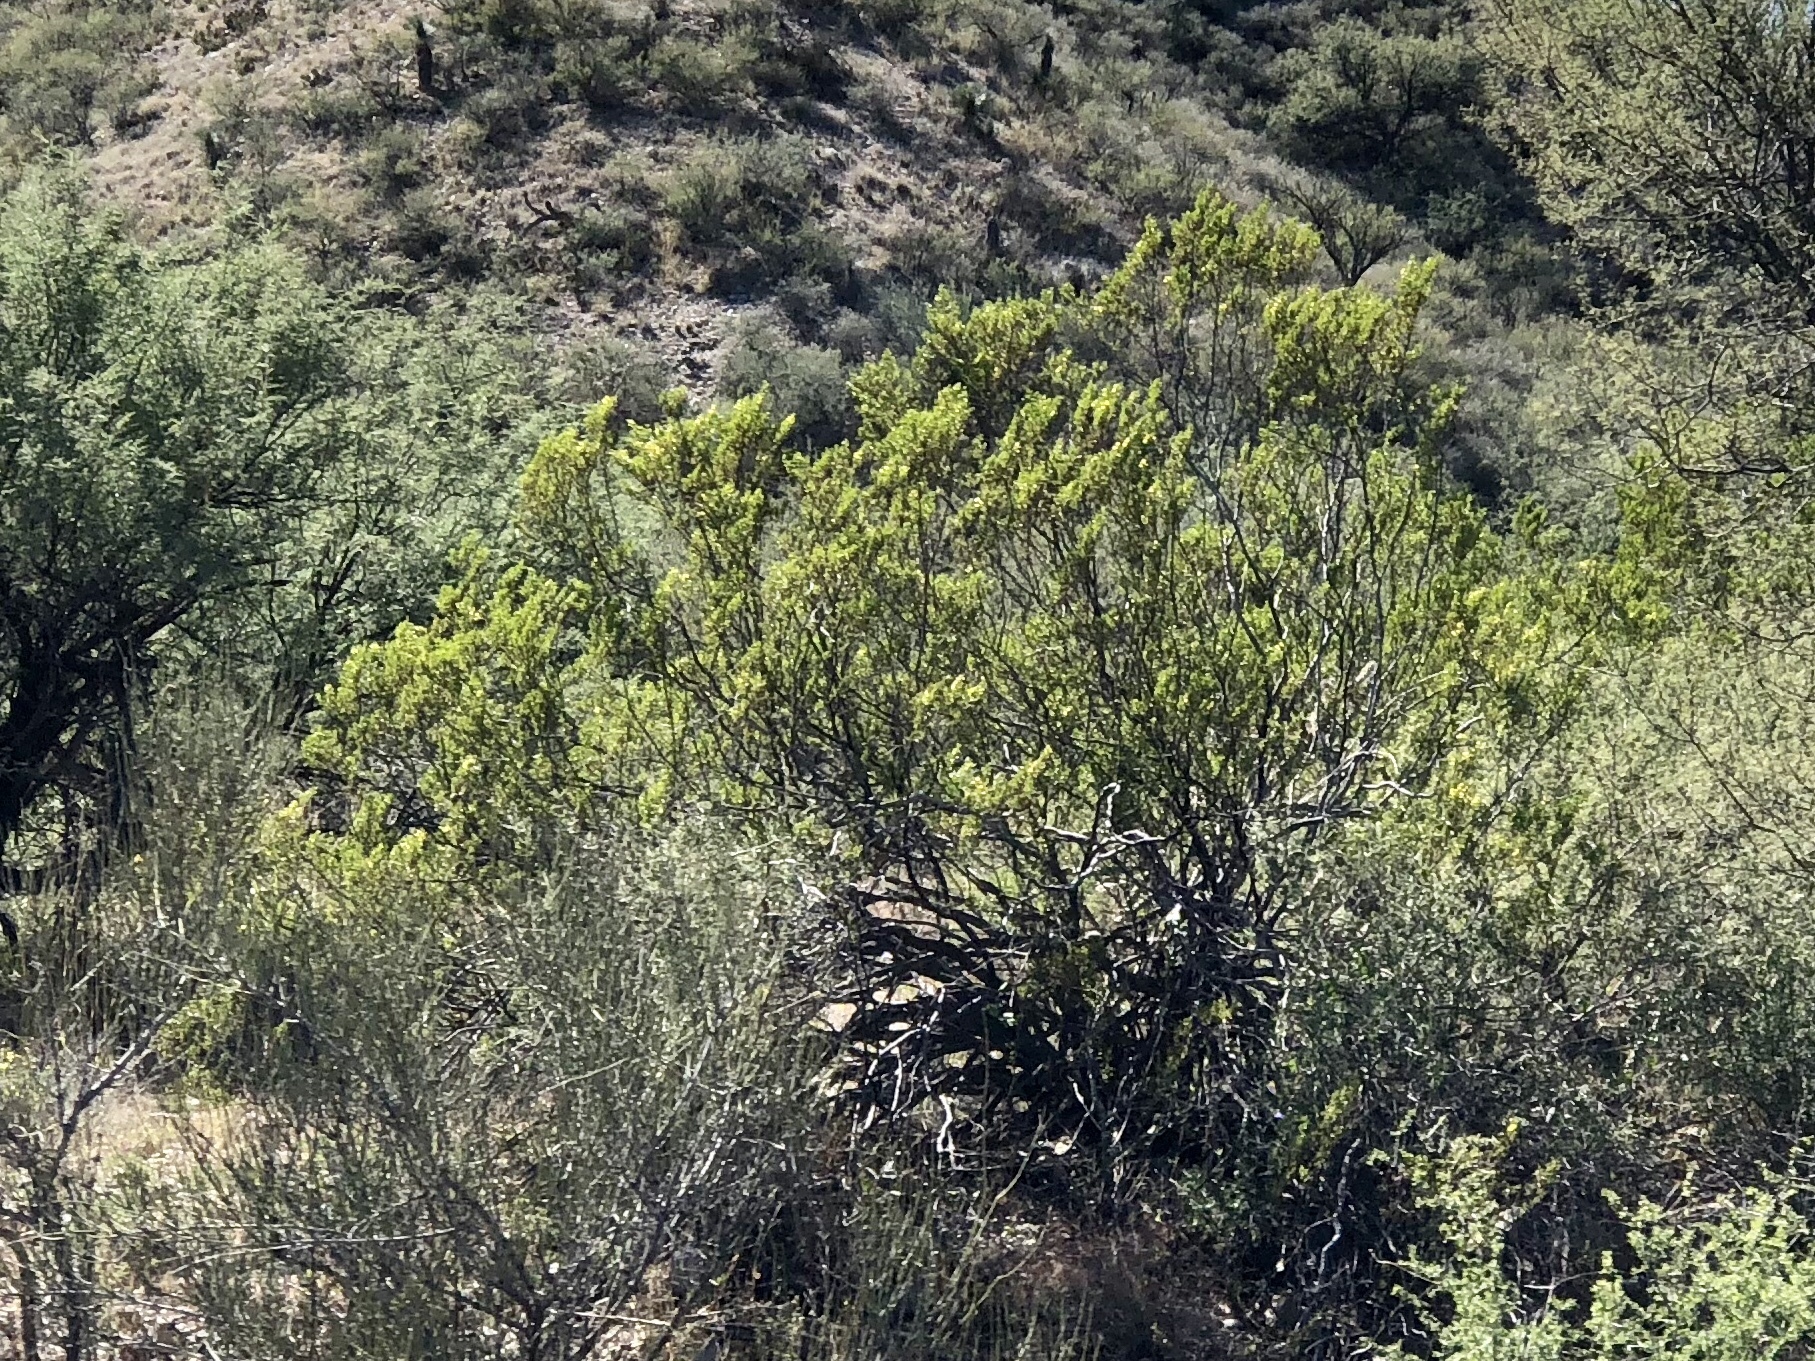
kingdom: Plantae
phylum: Tracheophyta
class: Magnoliopsida
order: Zygophyllales
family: Zygophyllaceae
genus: Larrea
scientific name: Larrea tridentata
